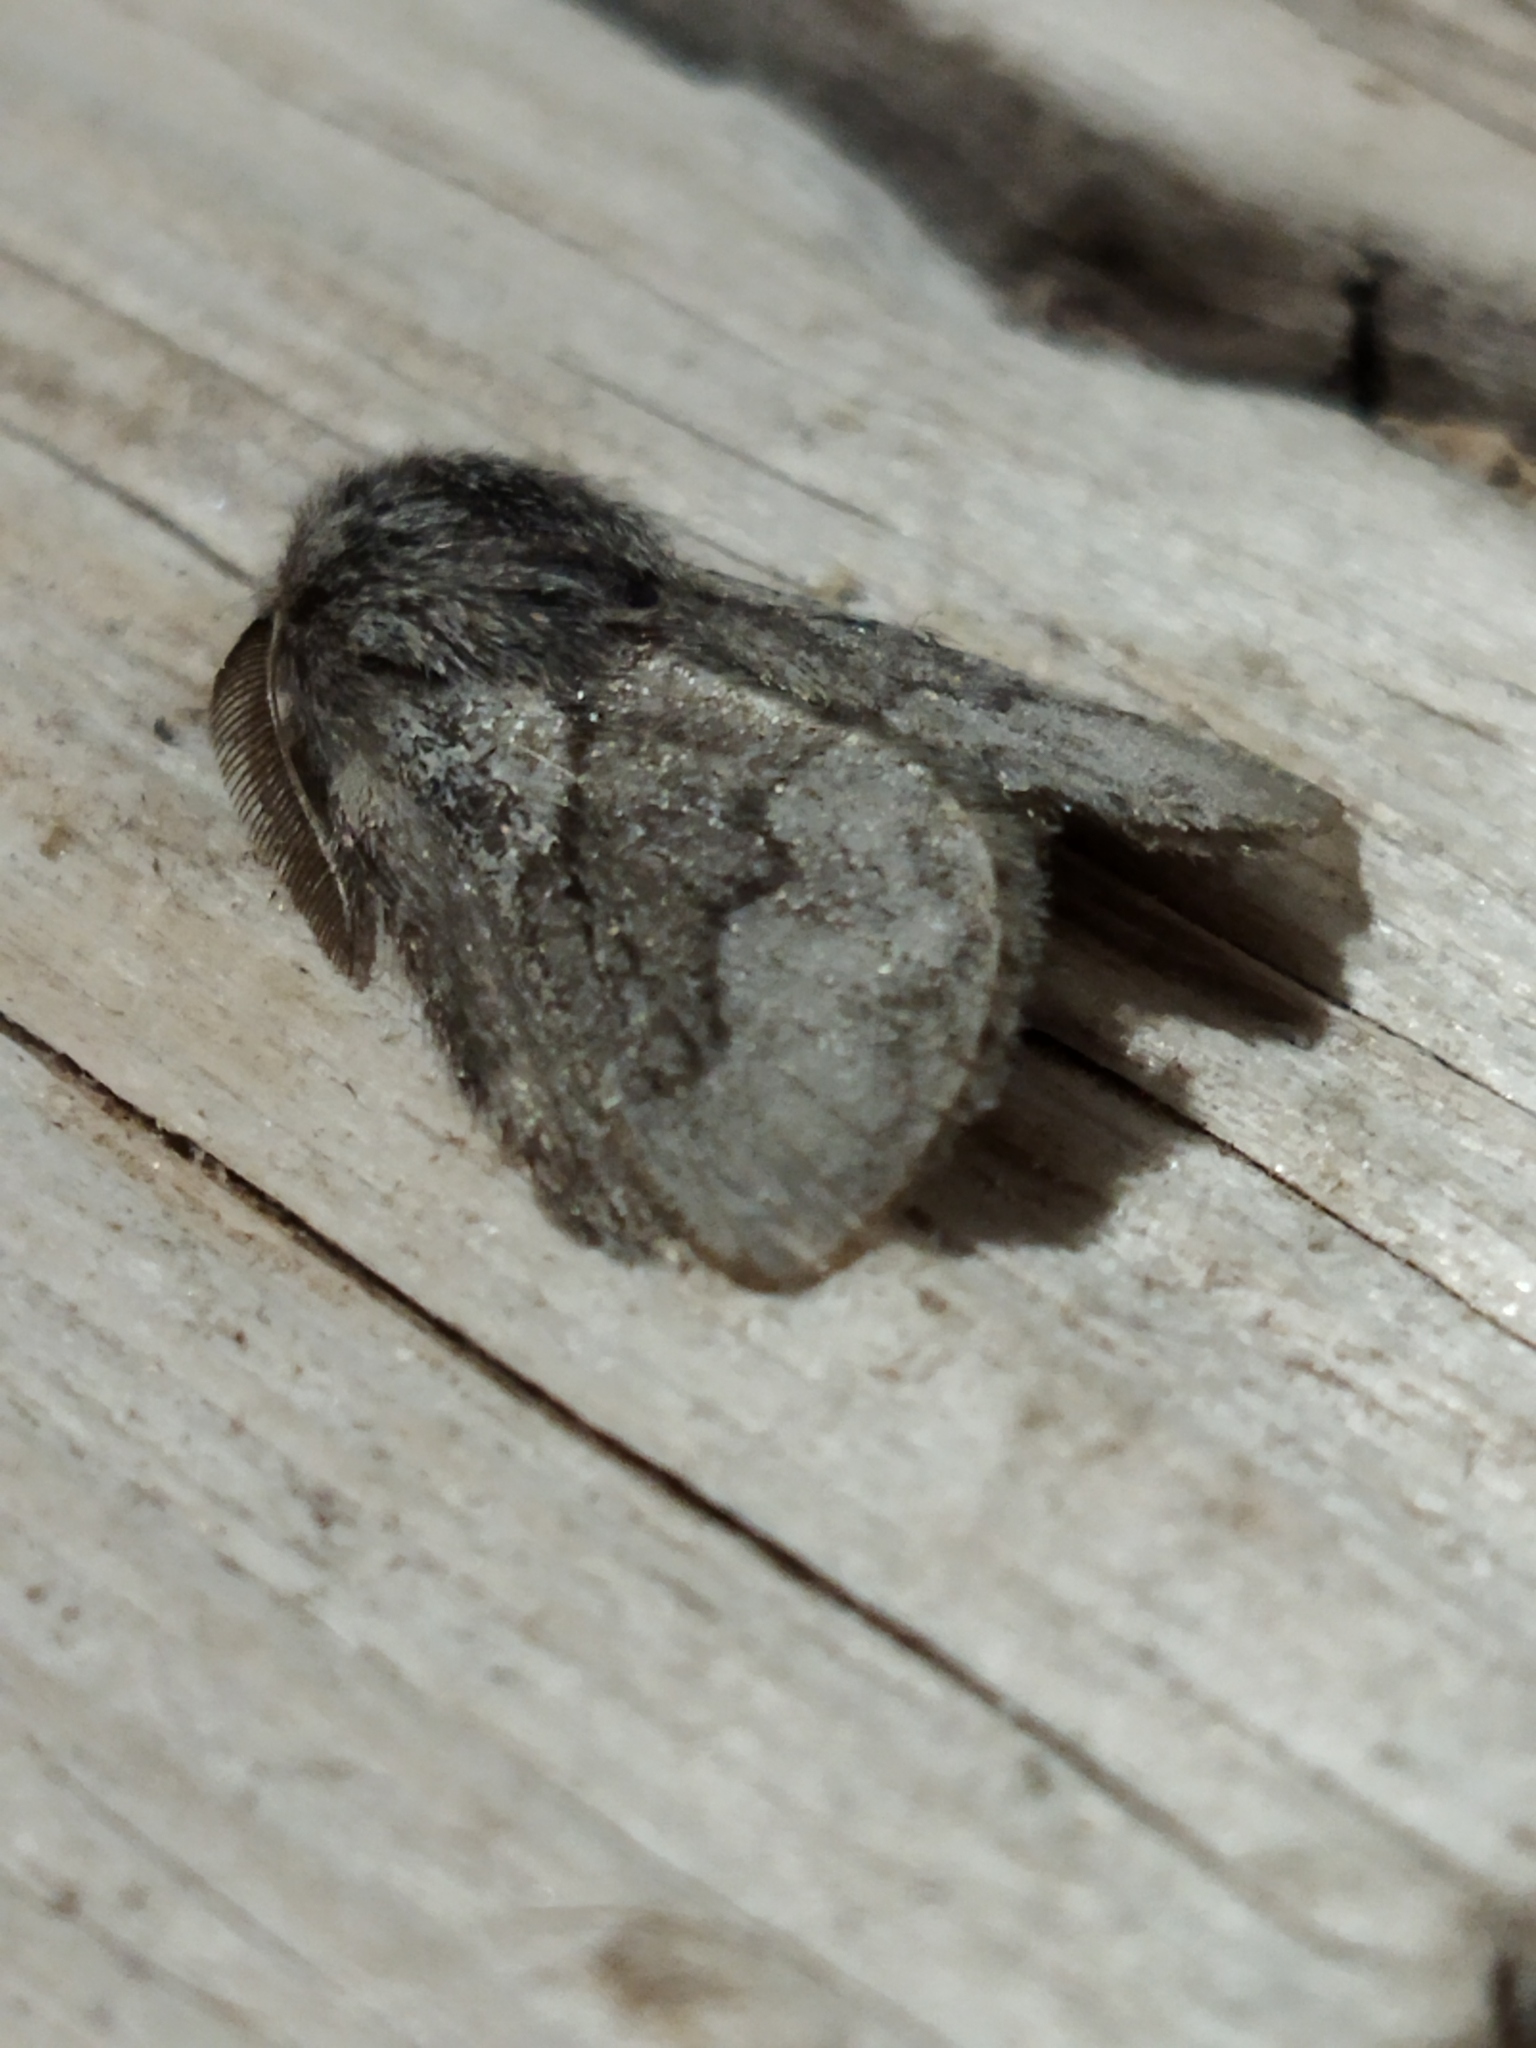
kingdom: Animalia
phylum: Arthropoda
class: Insecta
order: Lepidoptera
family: Lasiocampidae
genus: Trichiura
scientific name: Trichiura crataegi
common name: Pale eggar
